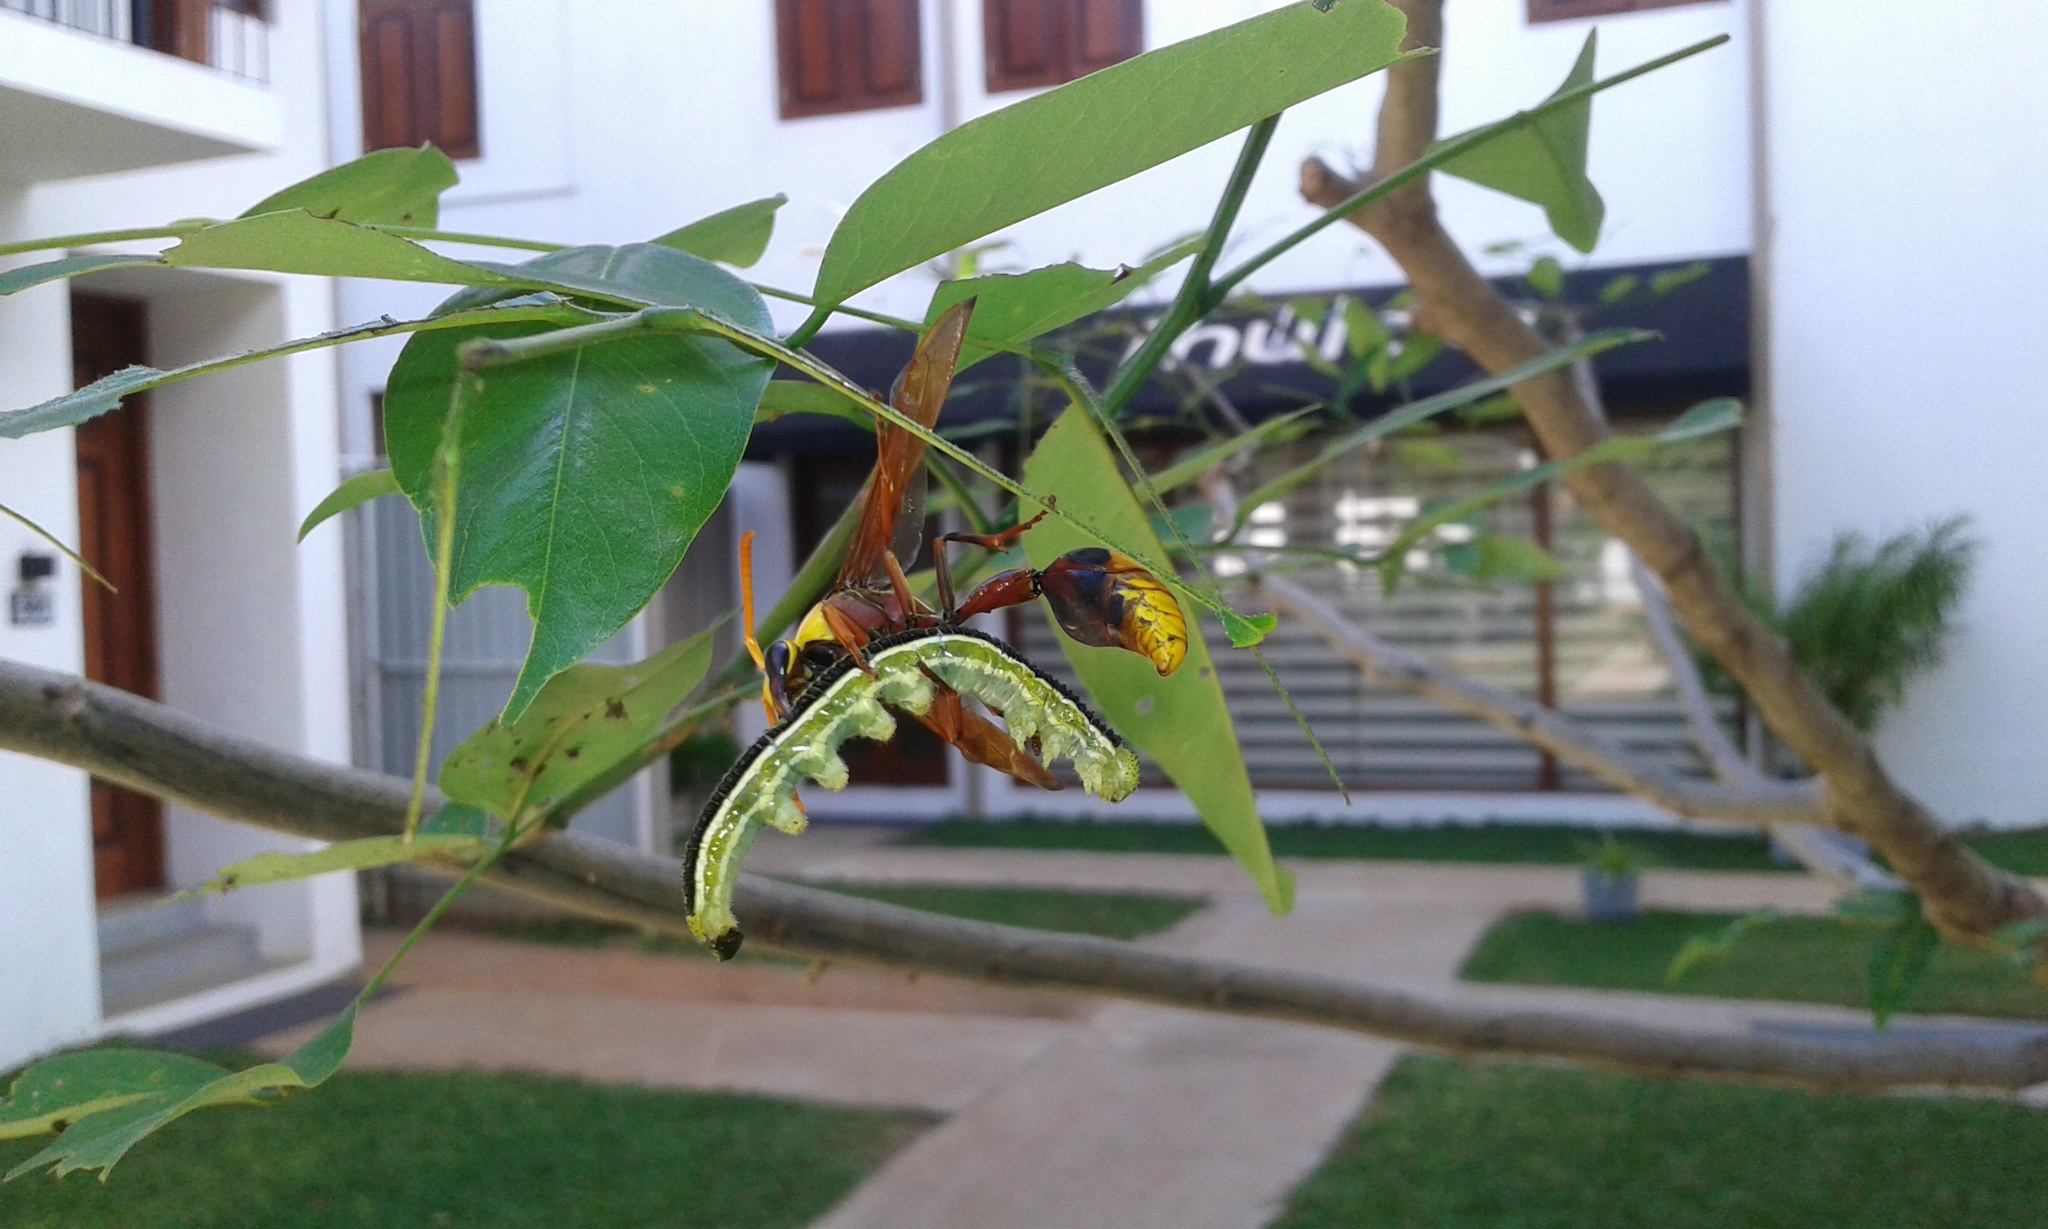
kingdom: Animalia
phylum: Arthropoda
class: Insecta
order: Hymenoptera
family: Eumenidae
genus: Delta
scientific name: Delta pyriforme
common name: Wasp
